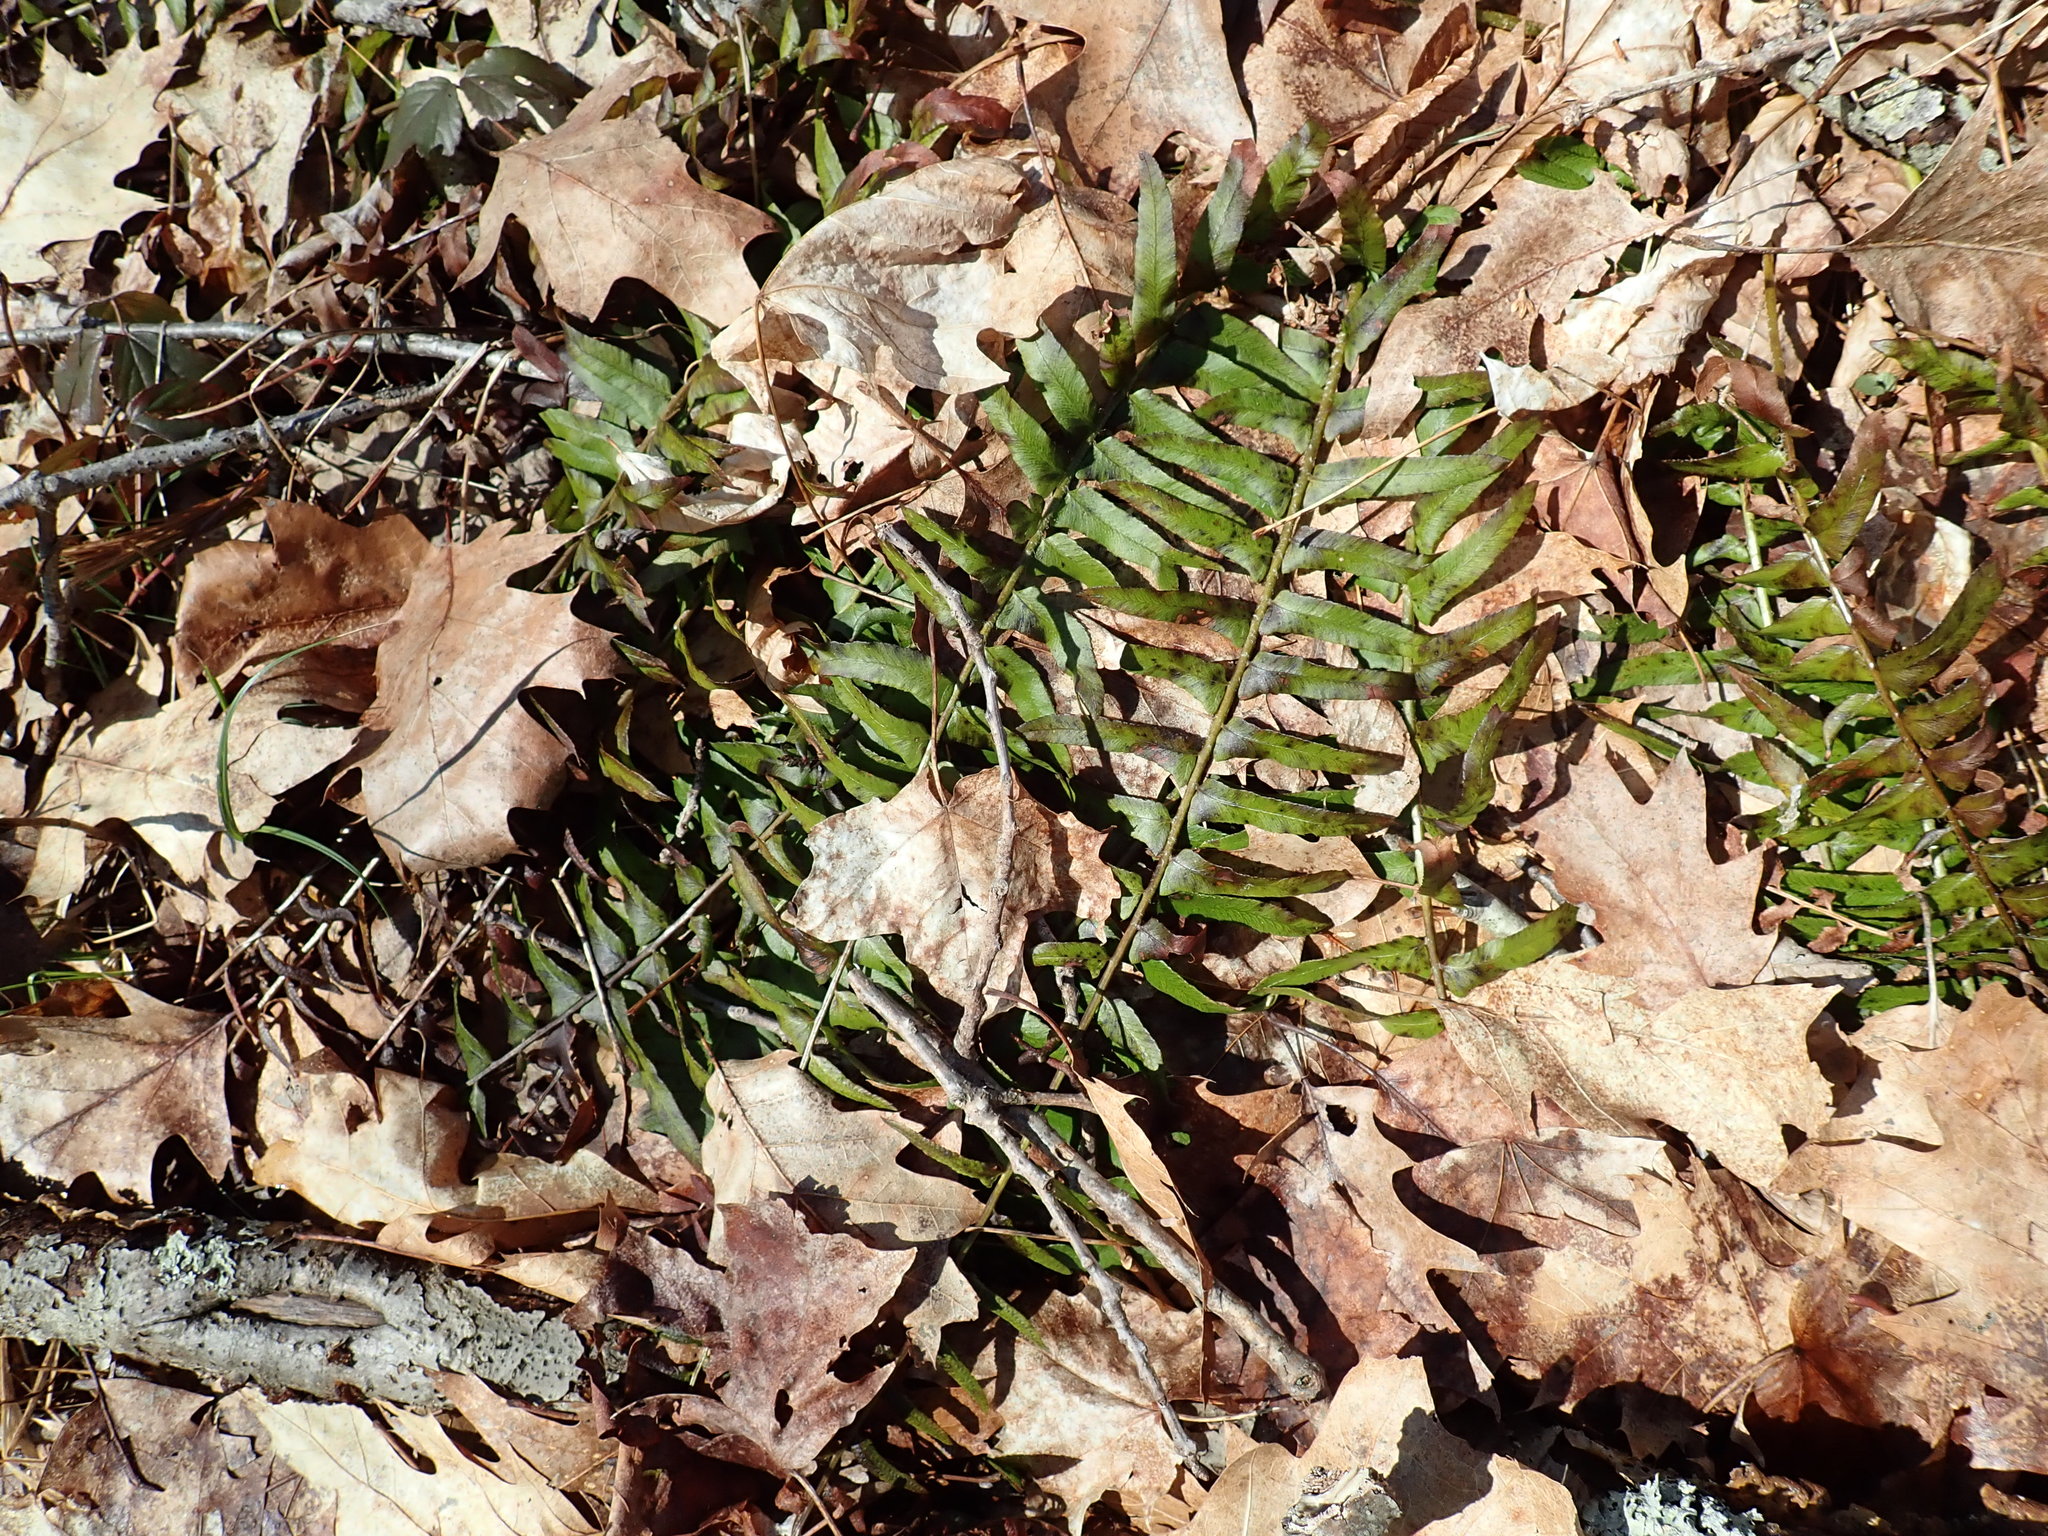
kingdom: Plantae
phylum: Tracheophyta
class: Polypodiopsida
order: Polypodiales
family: Dryopteridaceae
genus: Polystichum
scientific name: Polystichum acrostichoides
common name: Christmas fern
